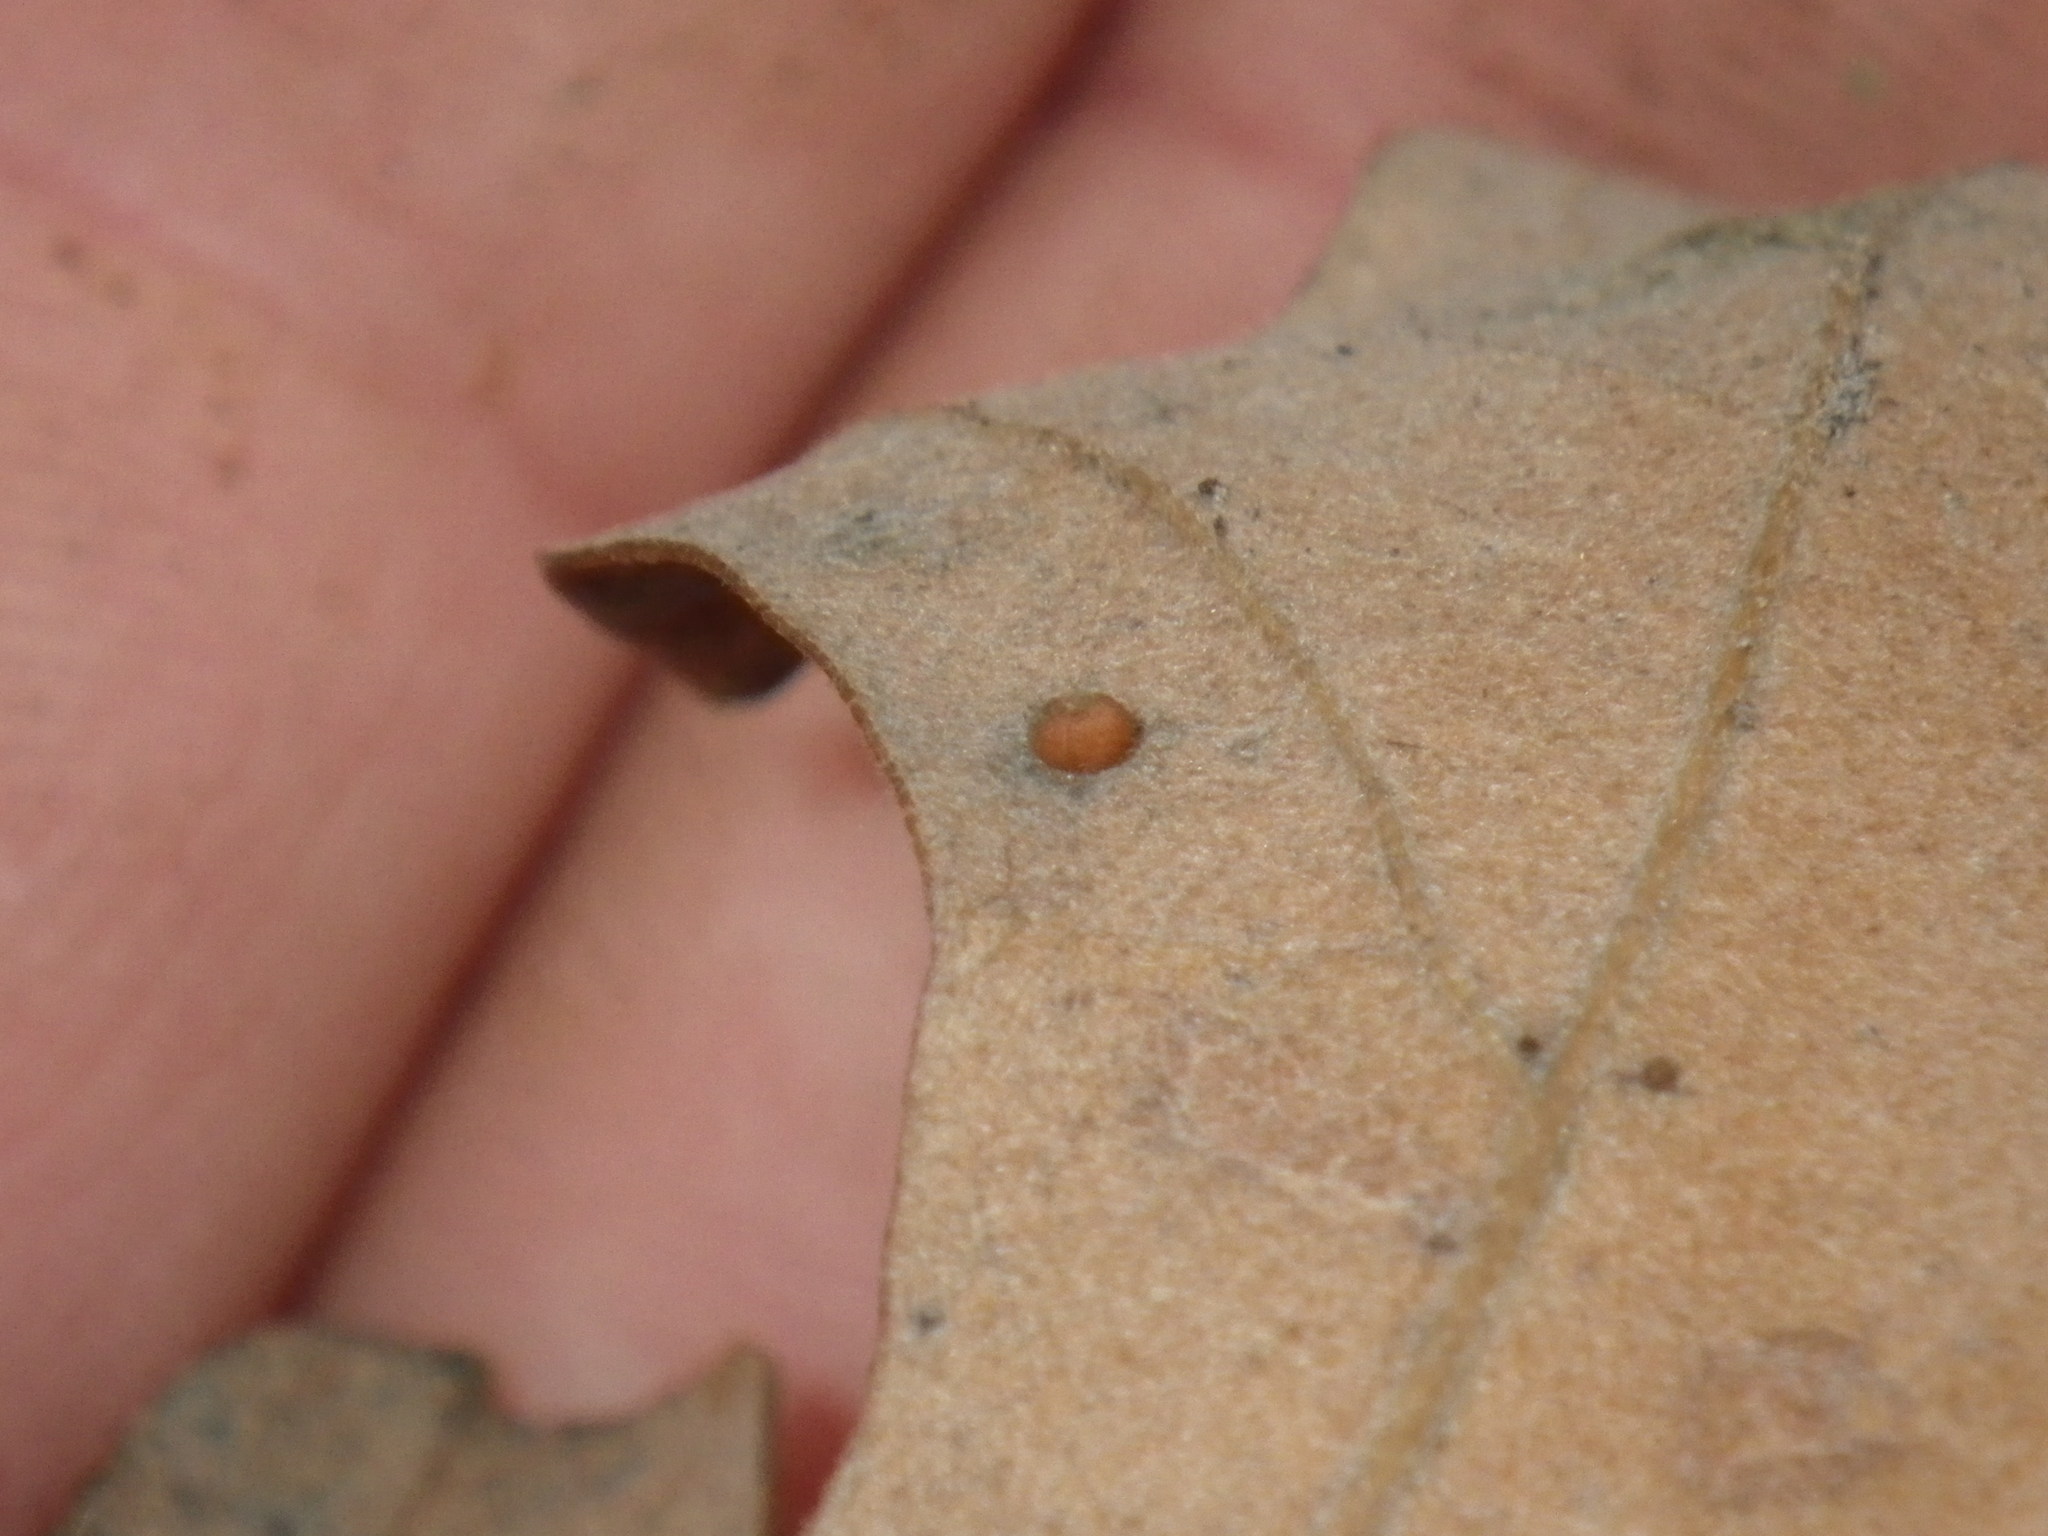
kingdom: Animalia
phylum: Arthropoda
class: Insecta
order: Hymenoptera
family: Cynipidae
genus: Neuroterus
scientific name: Neuroterus saltarius
